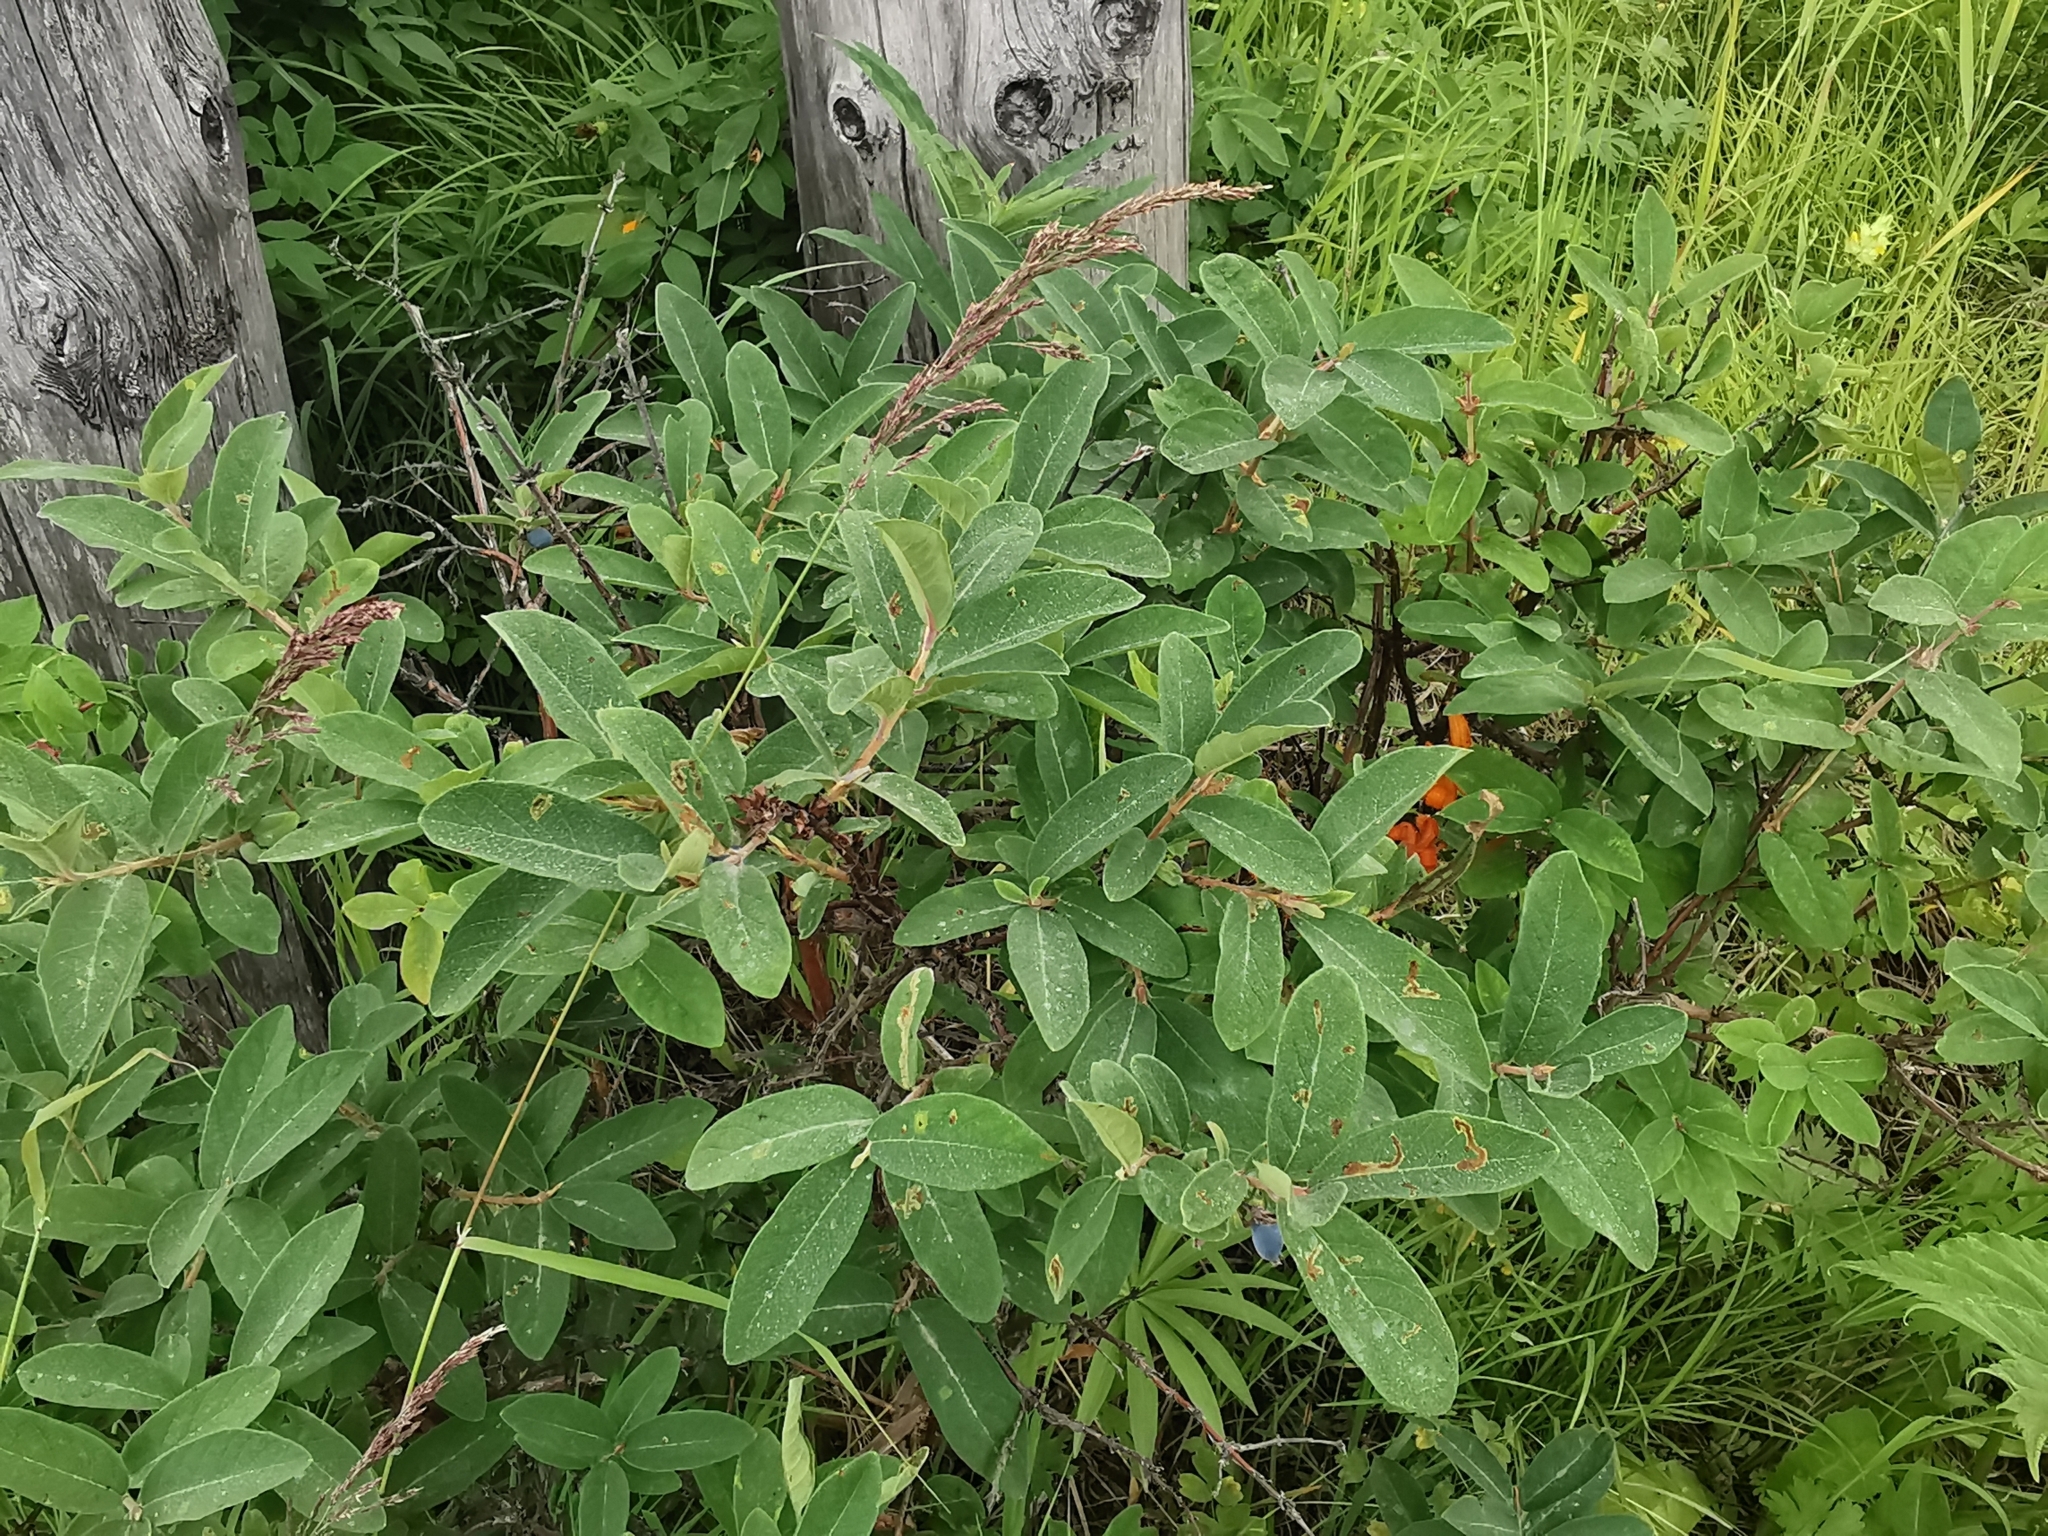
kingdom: Plantae
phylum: Tracheophyta
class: Magnoliopsida
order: Dipsacales
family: Caprifoliaceae
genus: Lonicera
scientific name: Lonicera caerulea
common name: Blue honeysuckle
